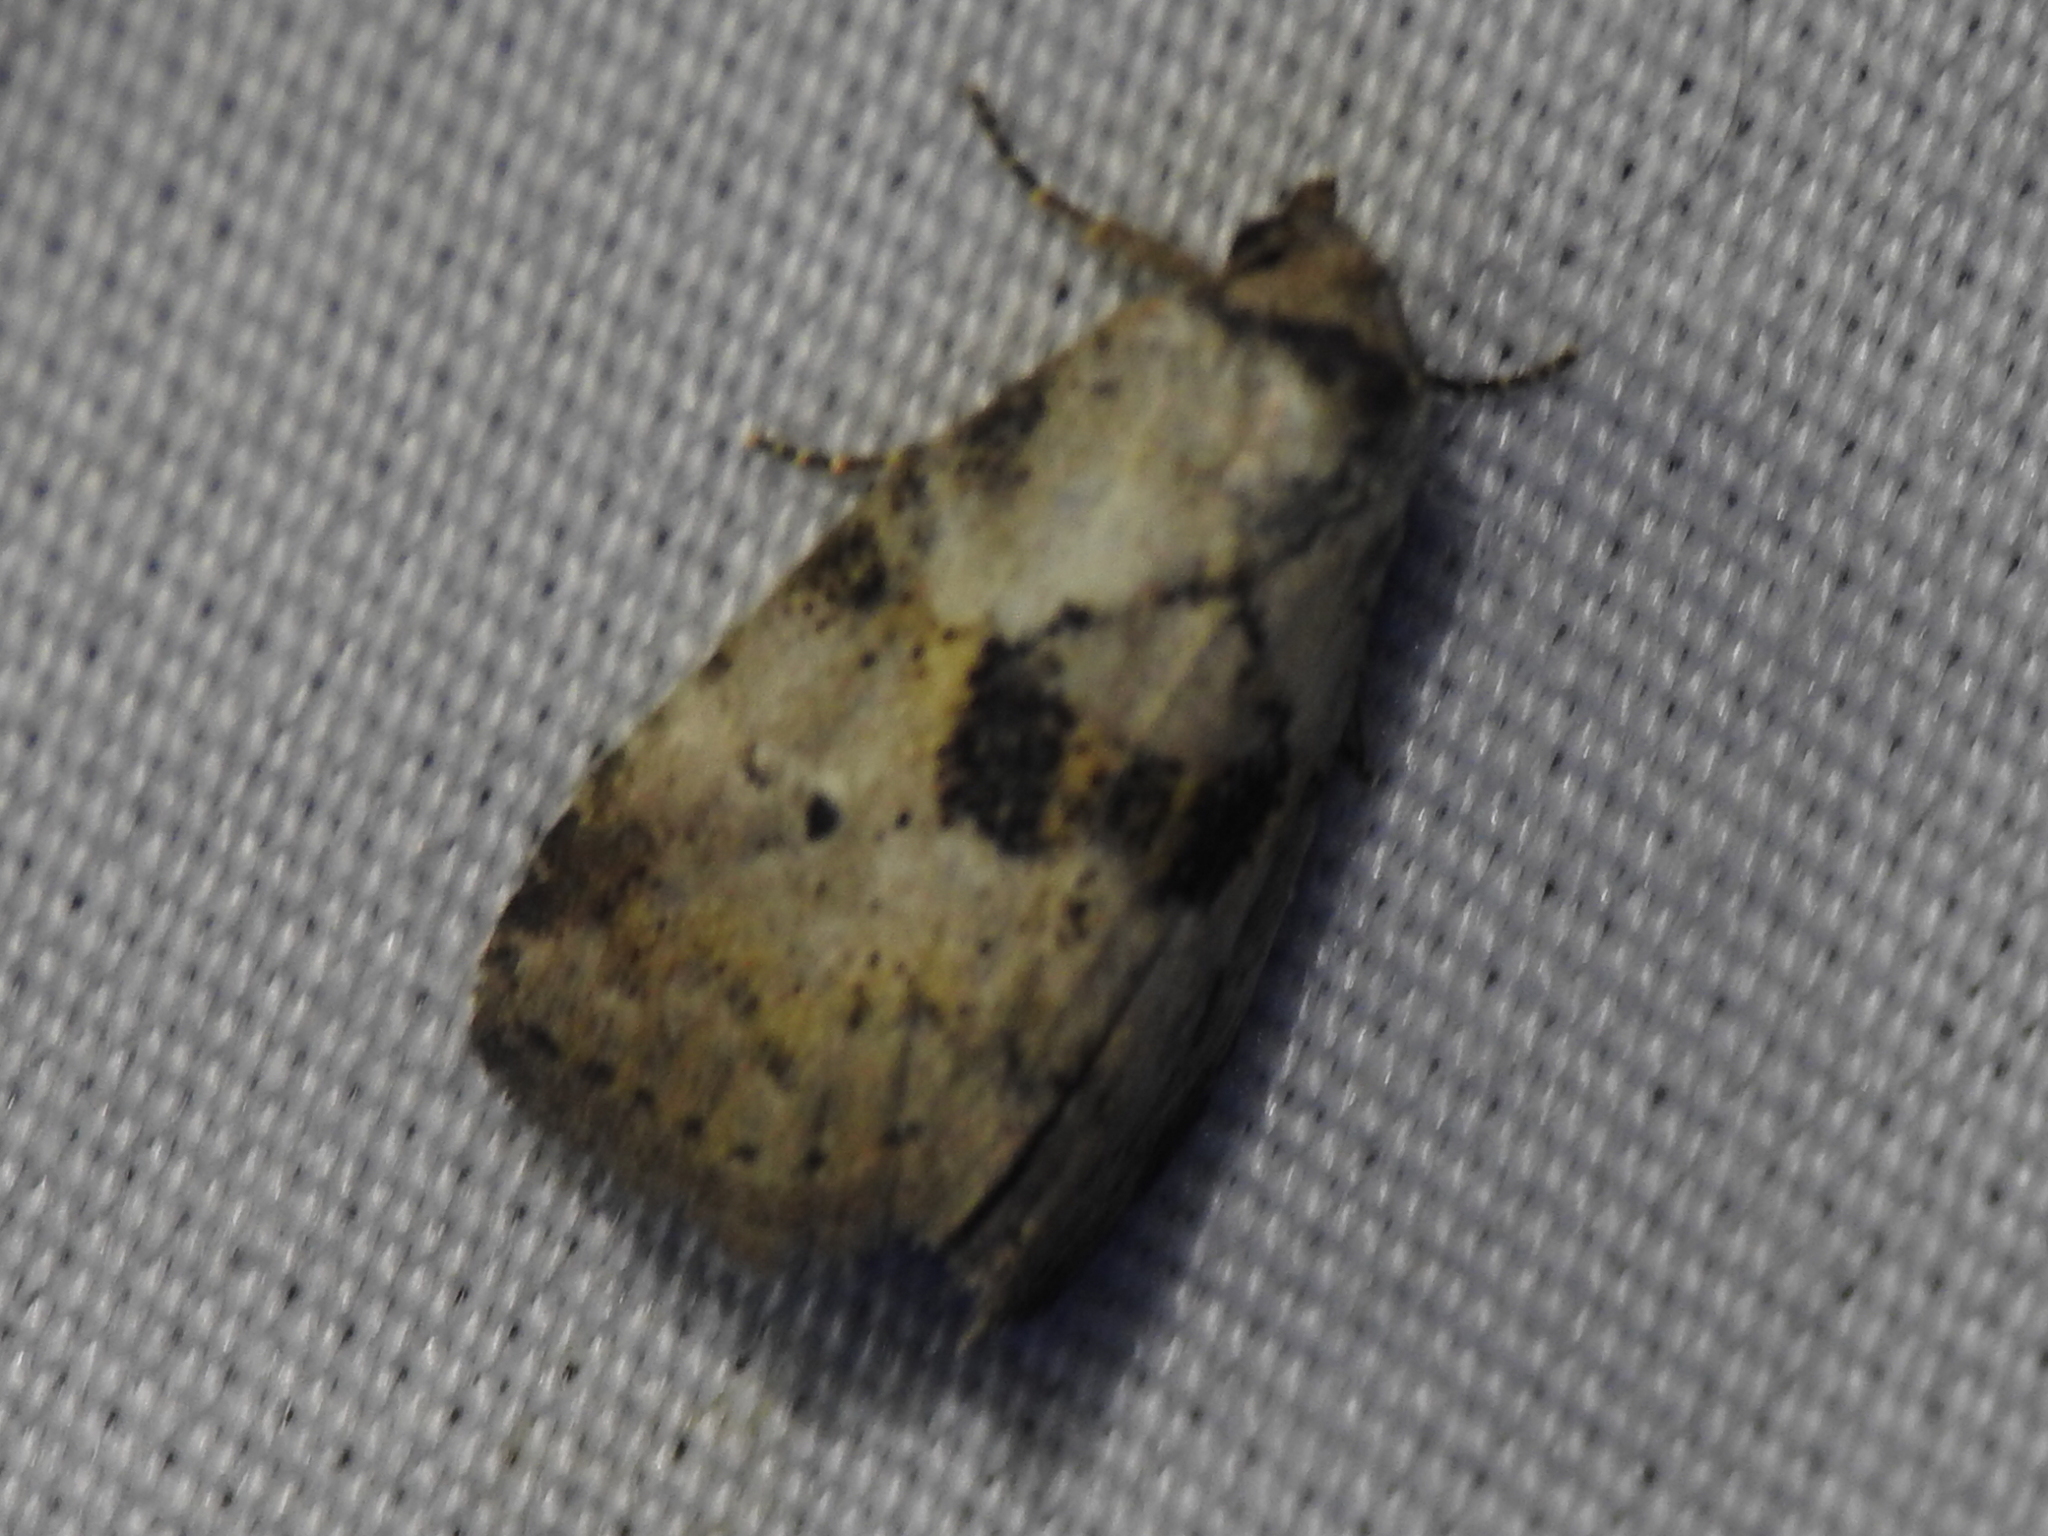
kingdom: Animalia
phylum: Arthropoda
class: Insecta
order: Lepidoptera
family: Erebidae
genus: Hyperstrotia
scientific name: Hyperstrotia secta
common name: Black-patched graylet
